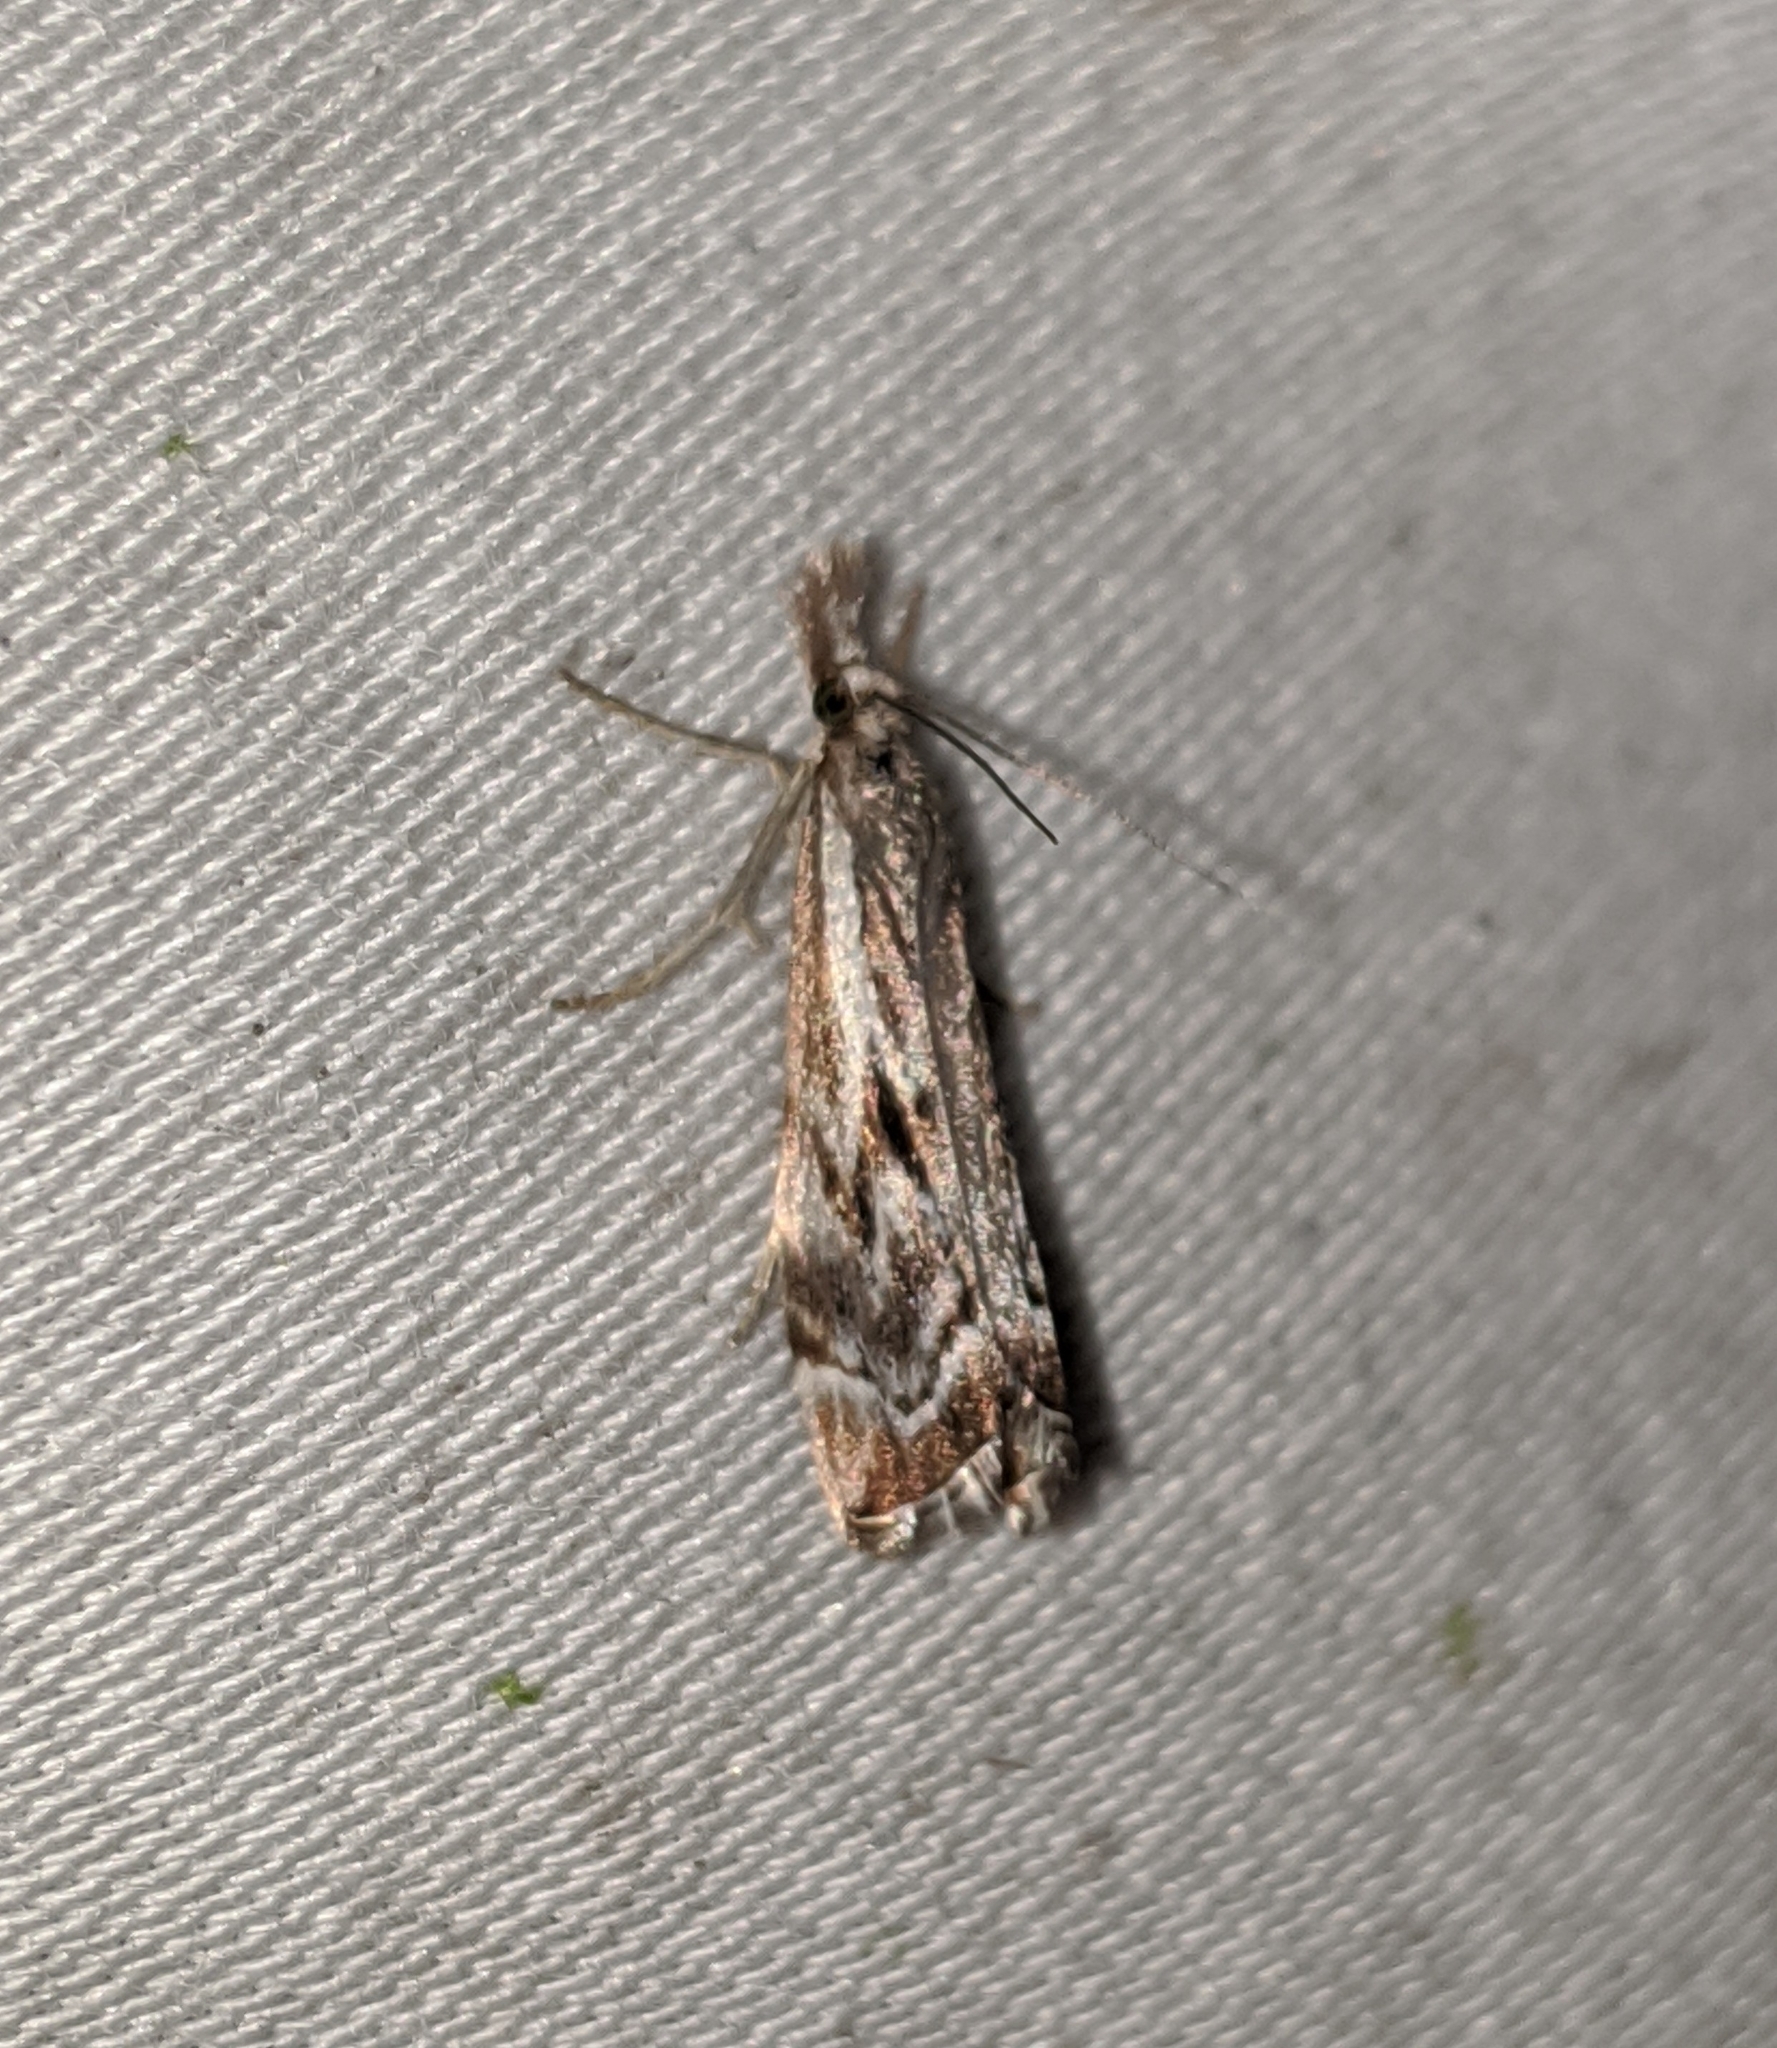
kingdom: Animalia
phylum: Arthropoda
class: Insecta
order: Lepidoptera
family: Crambidae
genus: Catoptria
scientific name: Catoptria oregonicus
